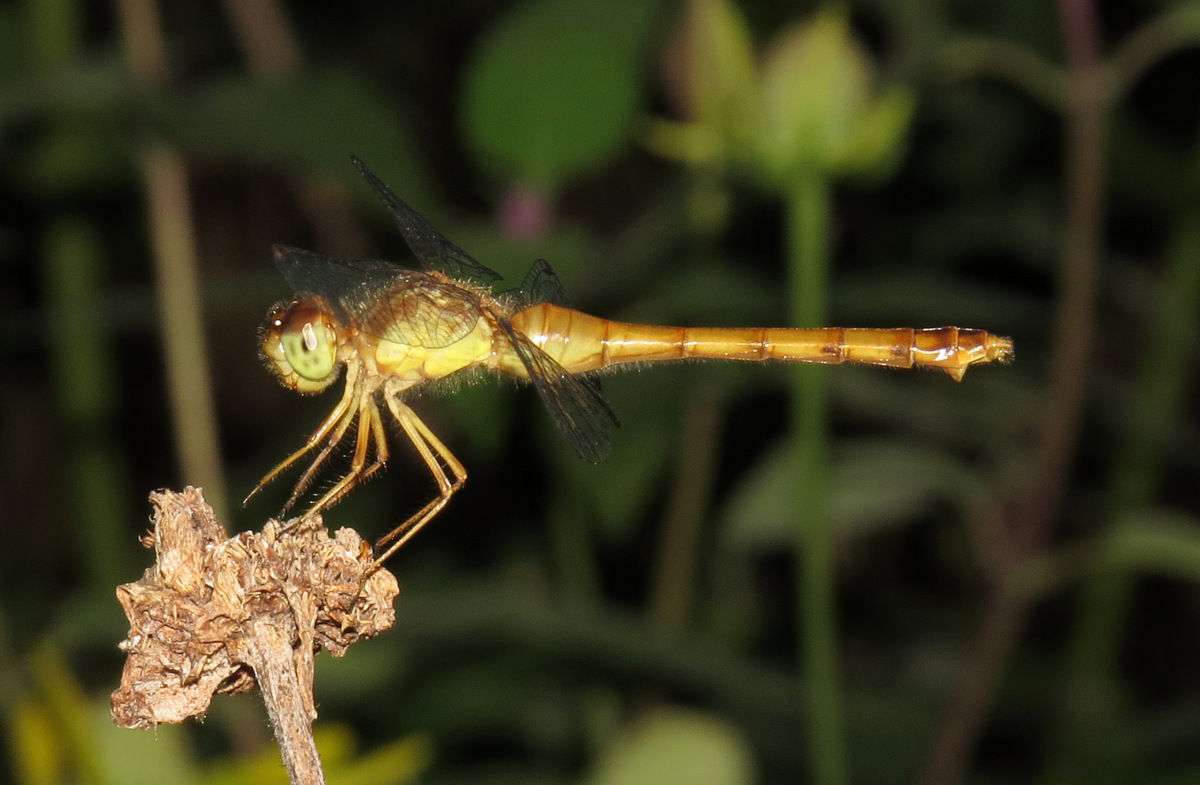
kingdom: Animalia
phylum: Arthropoda
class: Insecta
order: Odonata
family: Libellulidae
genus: Sympetrum
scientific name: Sympetrum vicinum
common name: Autumn meadowhawk
